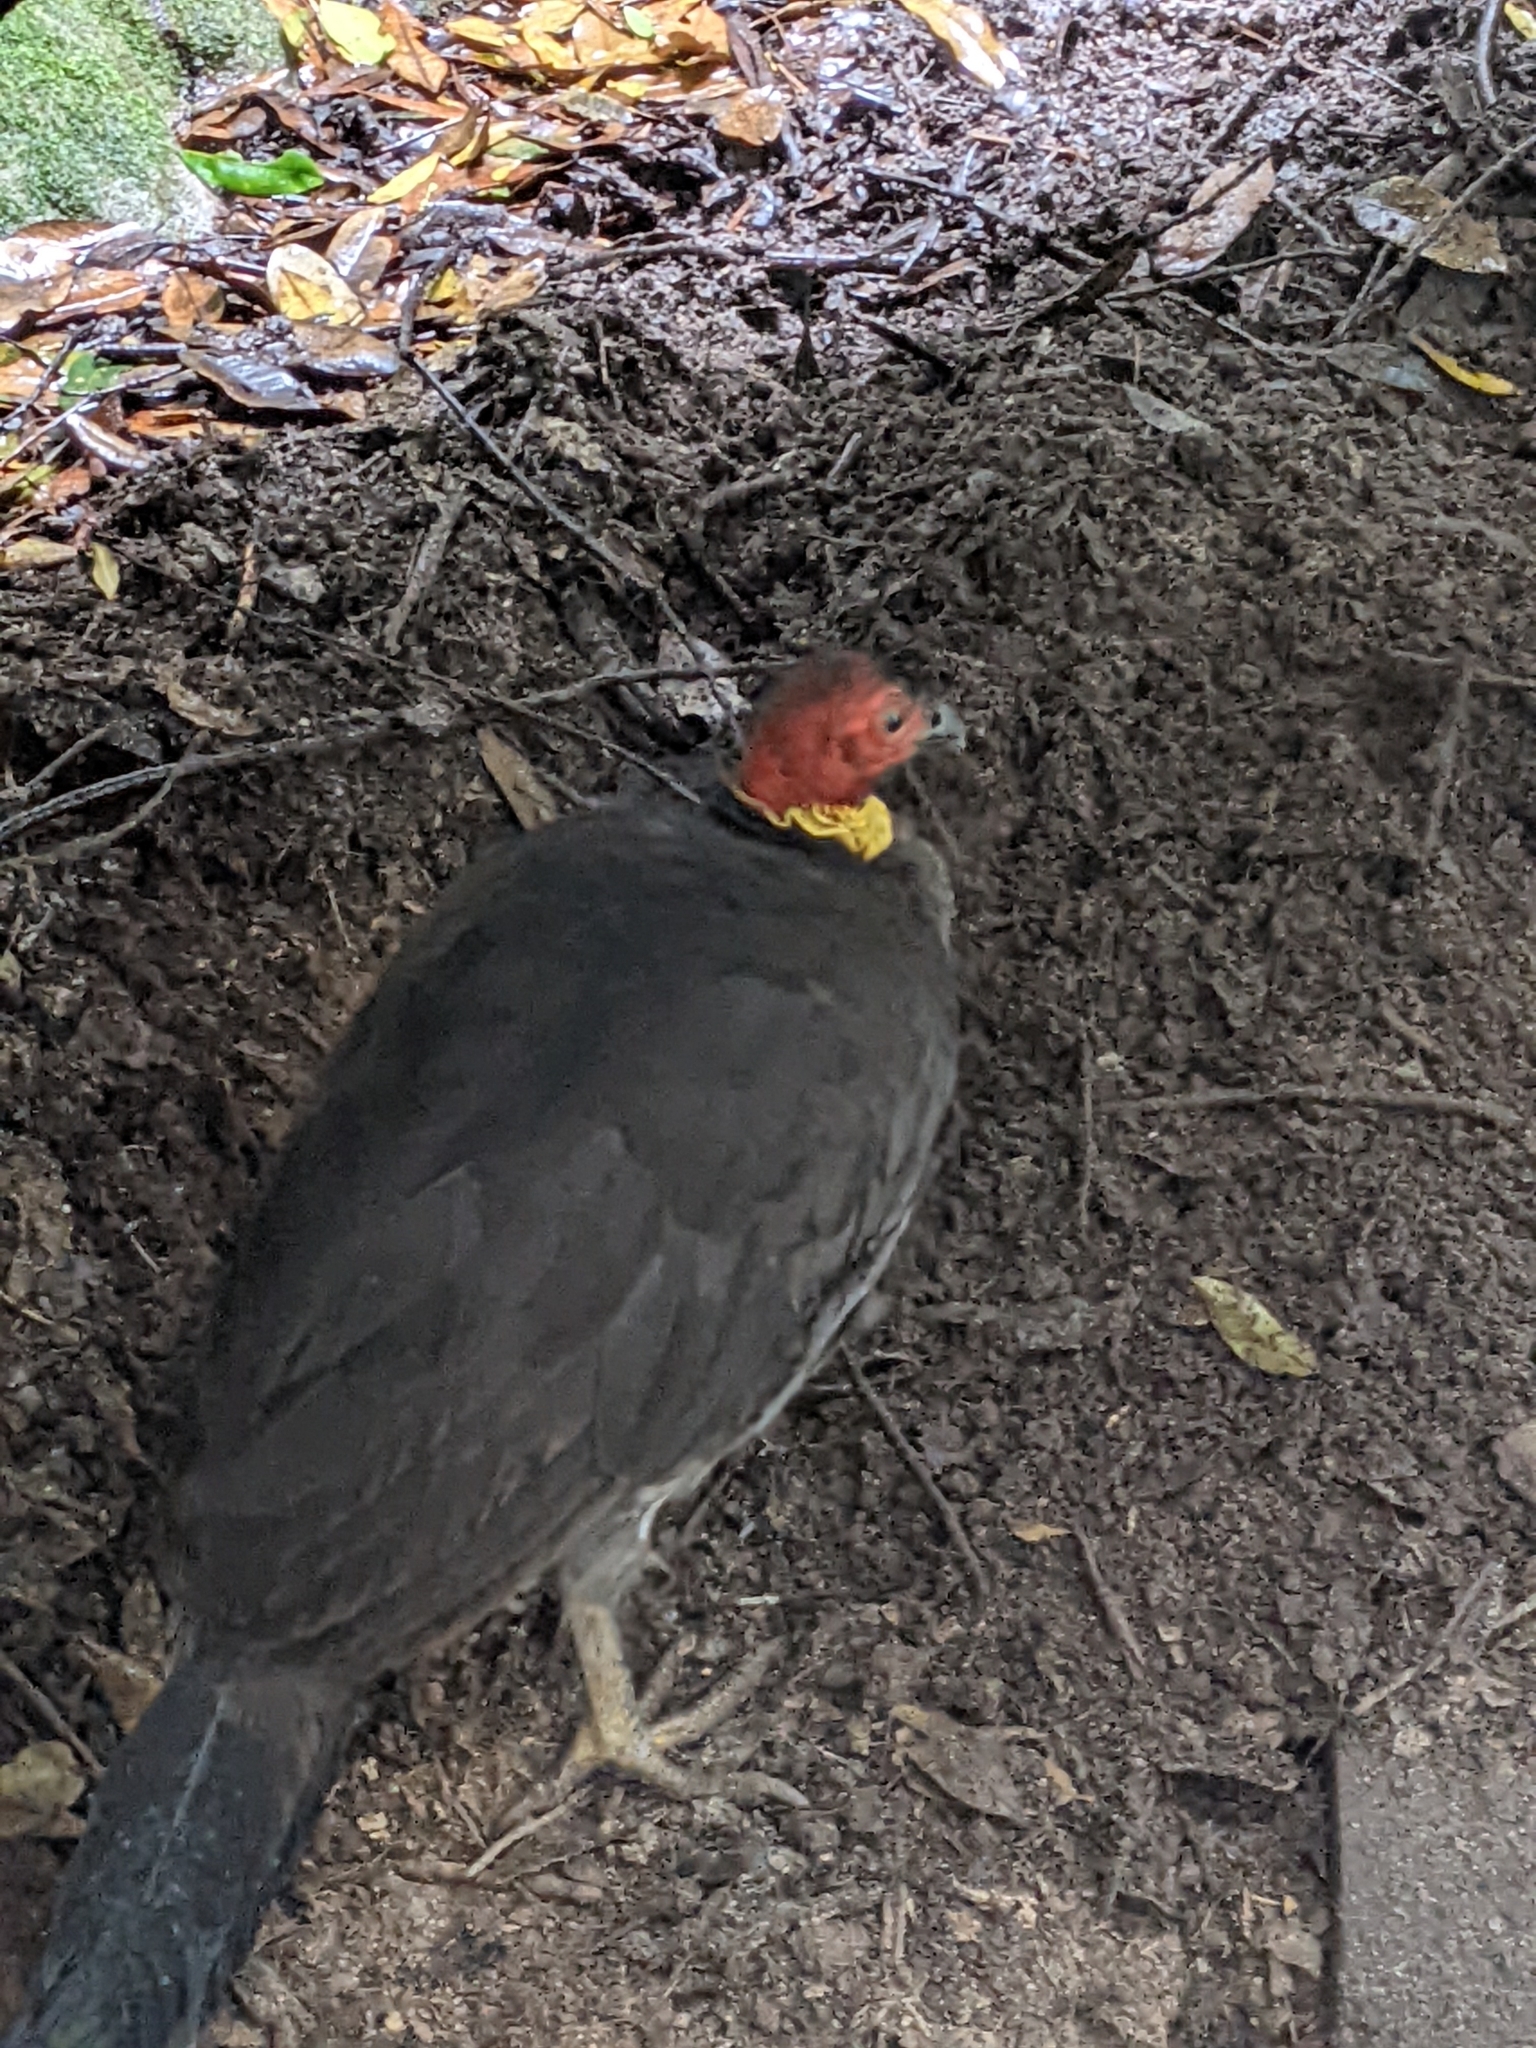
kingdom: Animalia
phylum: Chordata
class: Aves
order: Galliformes
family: Megapodiidae
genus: Alectura
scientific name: Alectura lathami
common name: Australian brushturkey
